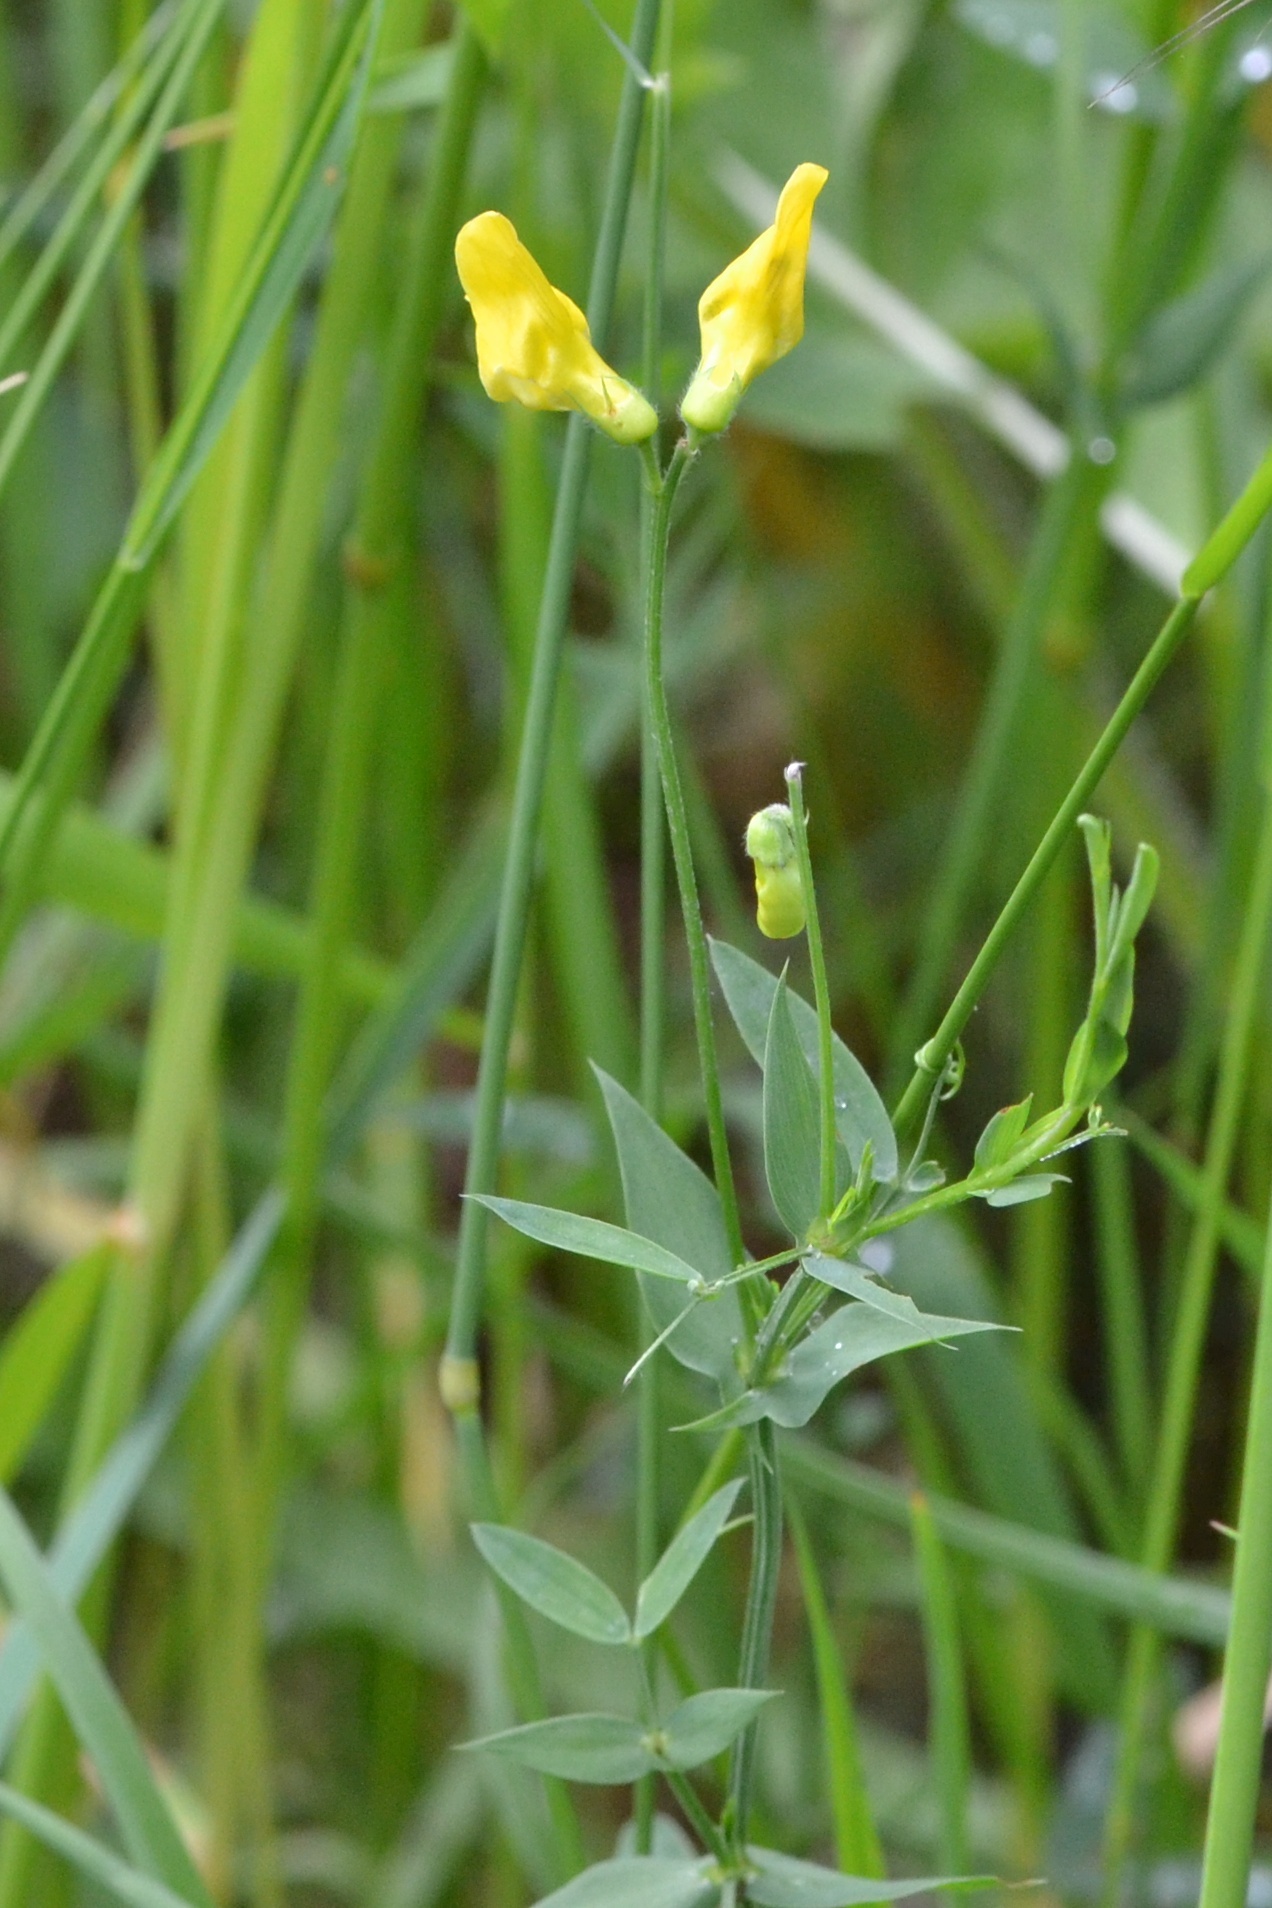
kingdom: Plantae
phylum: Tracheophyta
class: Magnoliopsida
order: Fabales
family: Fabaceae
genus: Lathyrus
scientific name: Lathyrus pratensis
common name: Meadow vetchling
